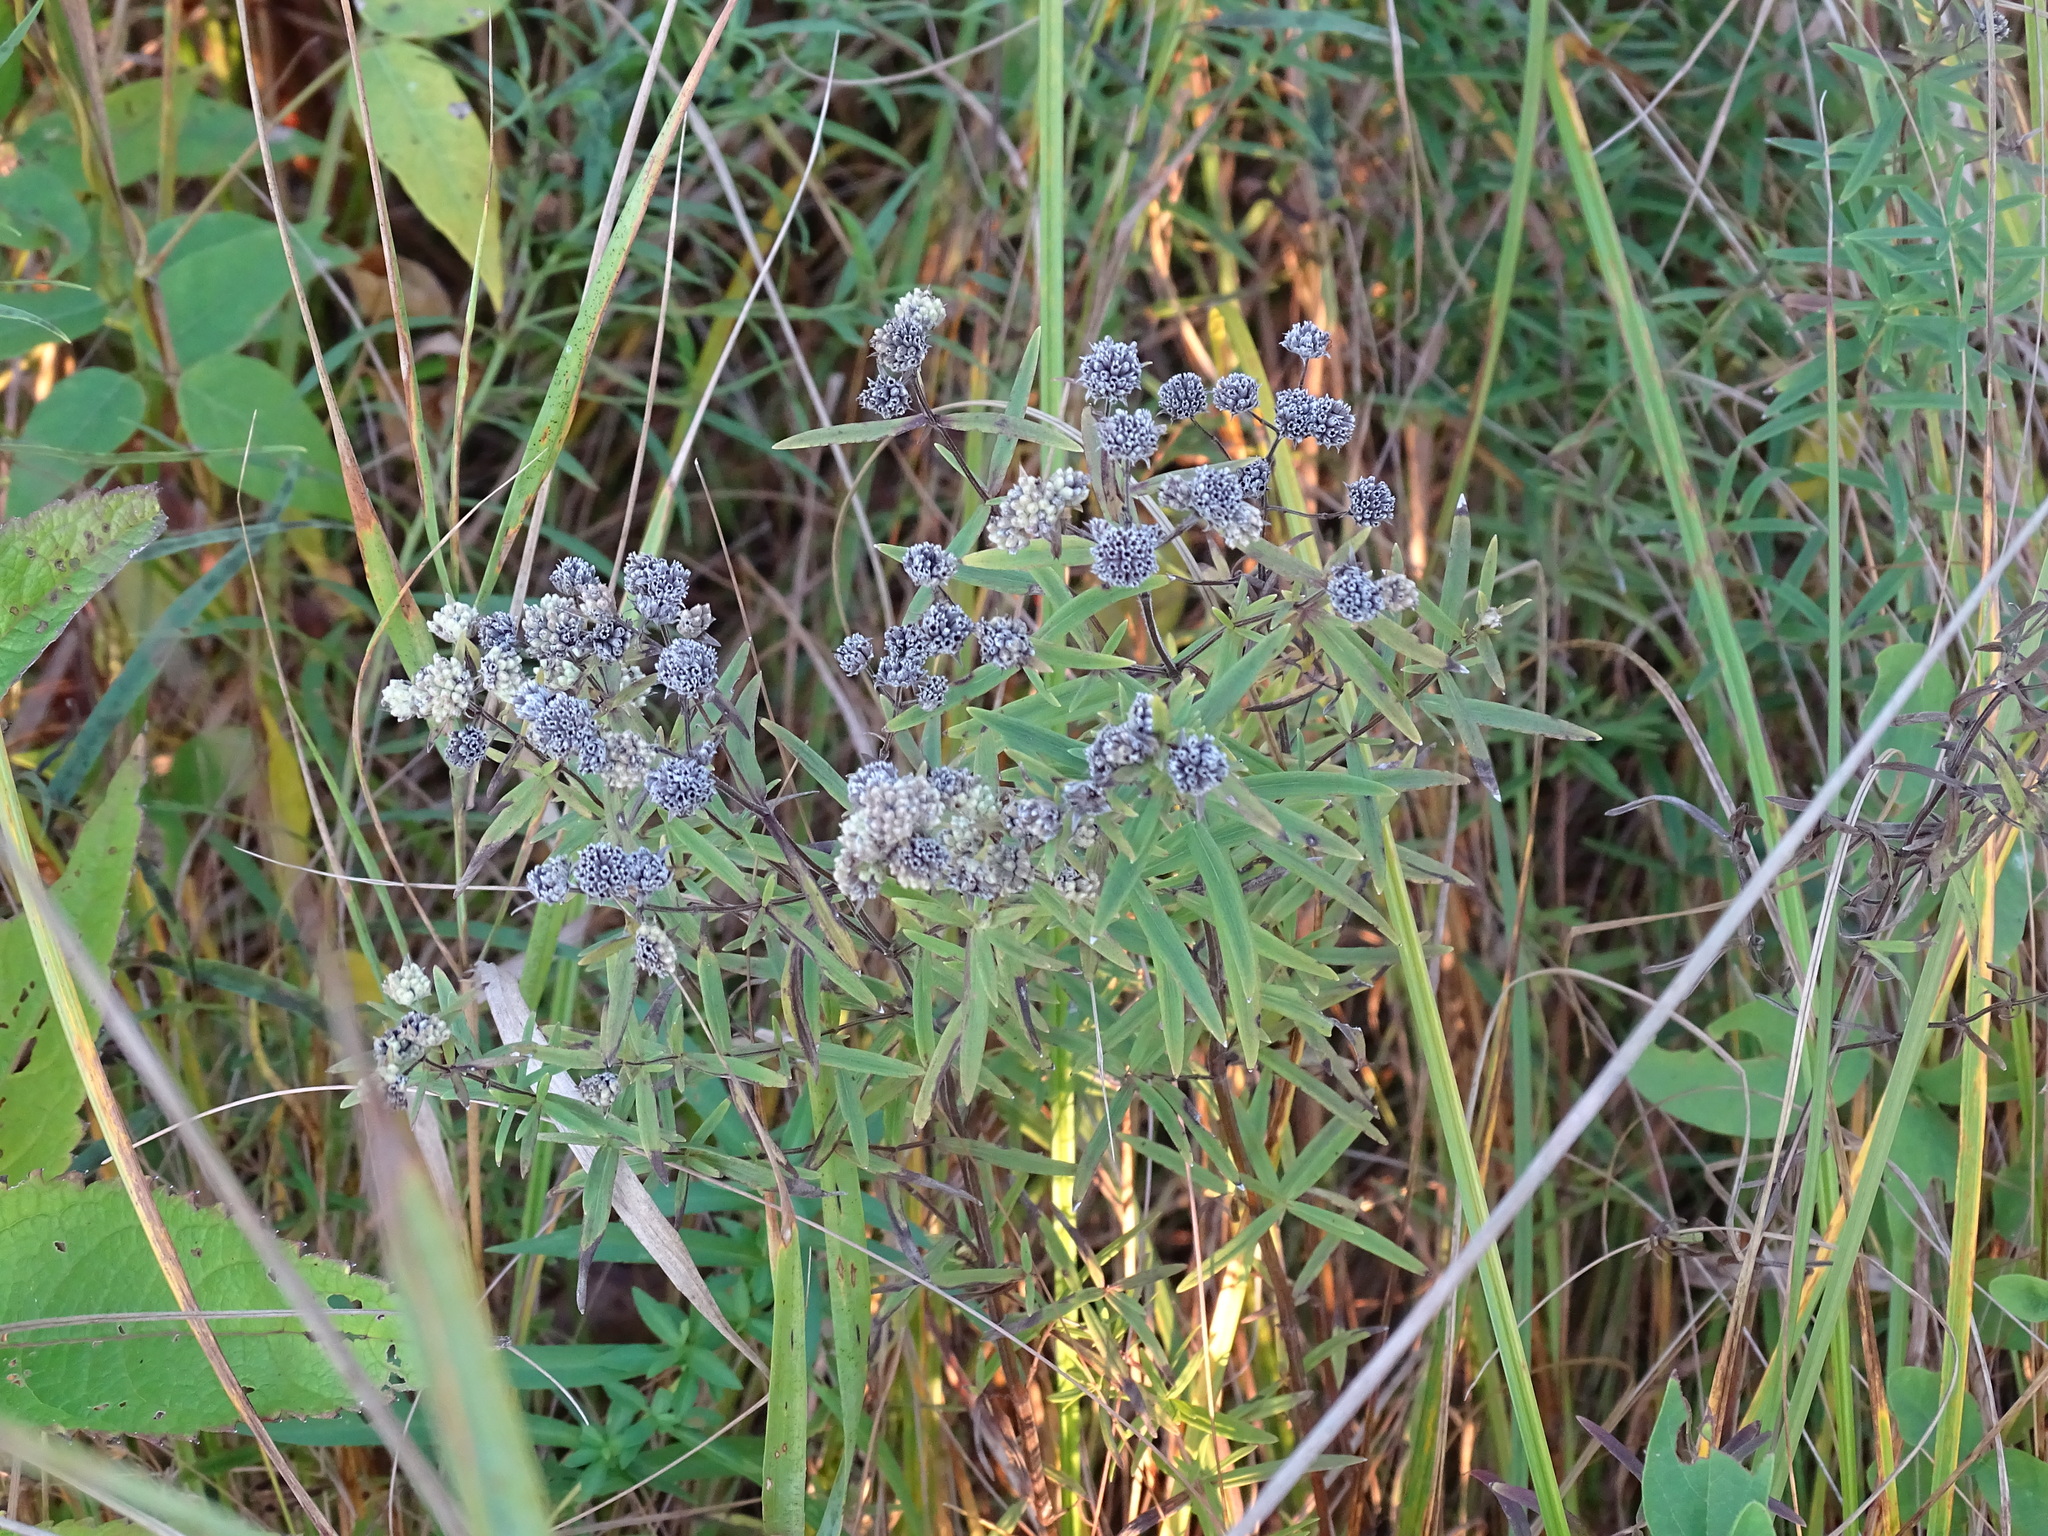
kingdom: Plantae
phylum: Tracheophyta
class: Magnoliopsida
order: Lamiales
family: Lamiaceae
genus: Pycnanthemum
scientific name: Pycnanthemum virginianum
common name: Virginia mountain-mint
